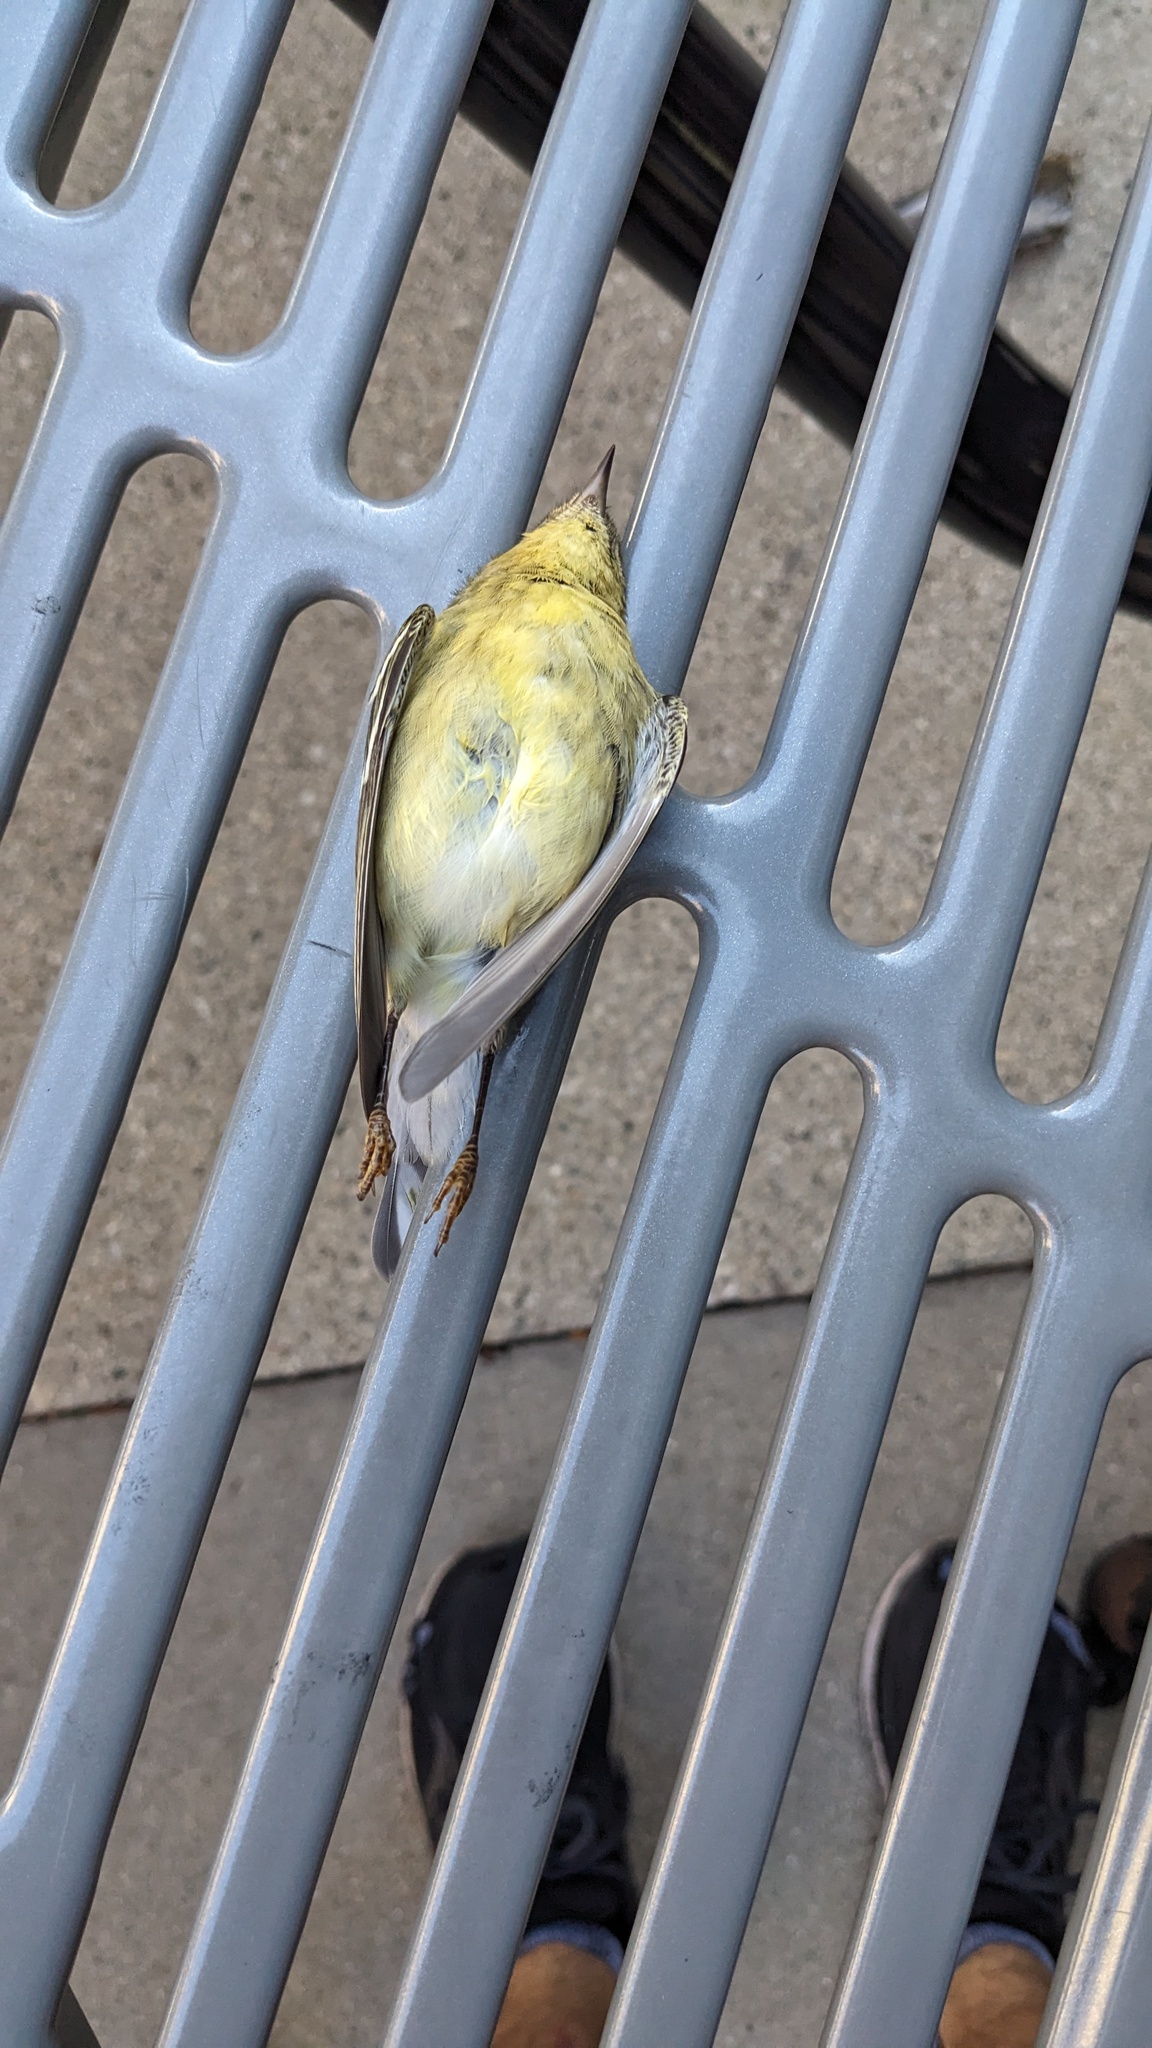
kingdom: Animalia
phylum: Chordata
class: Aves
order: Passeriformes
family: Parulidae
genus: Setophaga
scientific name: Setophaga striata
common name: Blackpoll warbler
